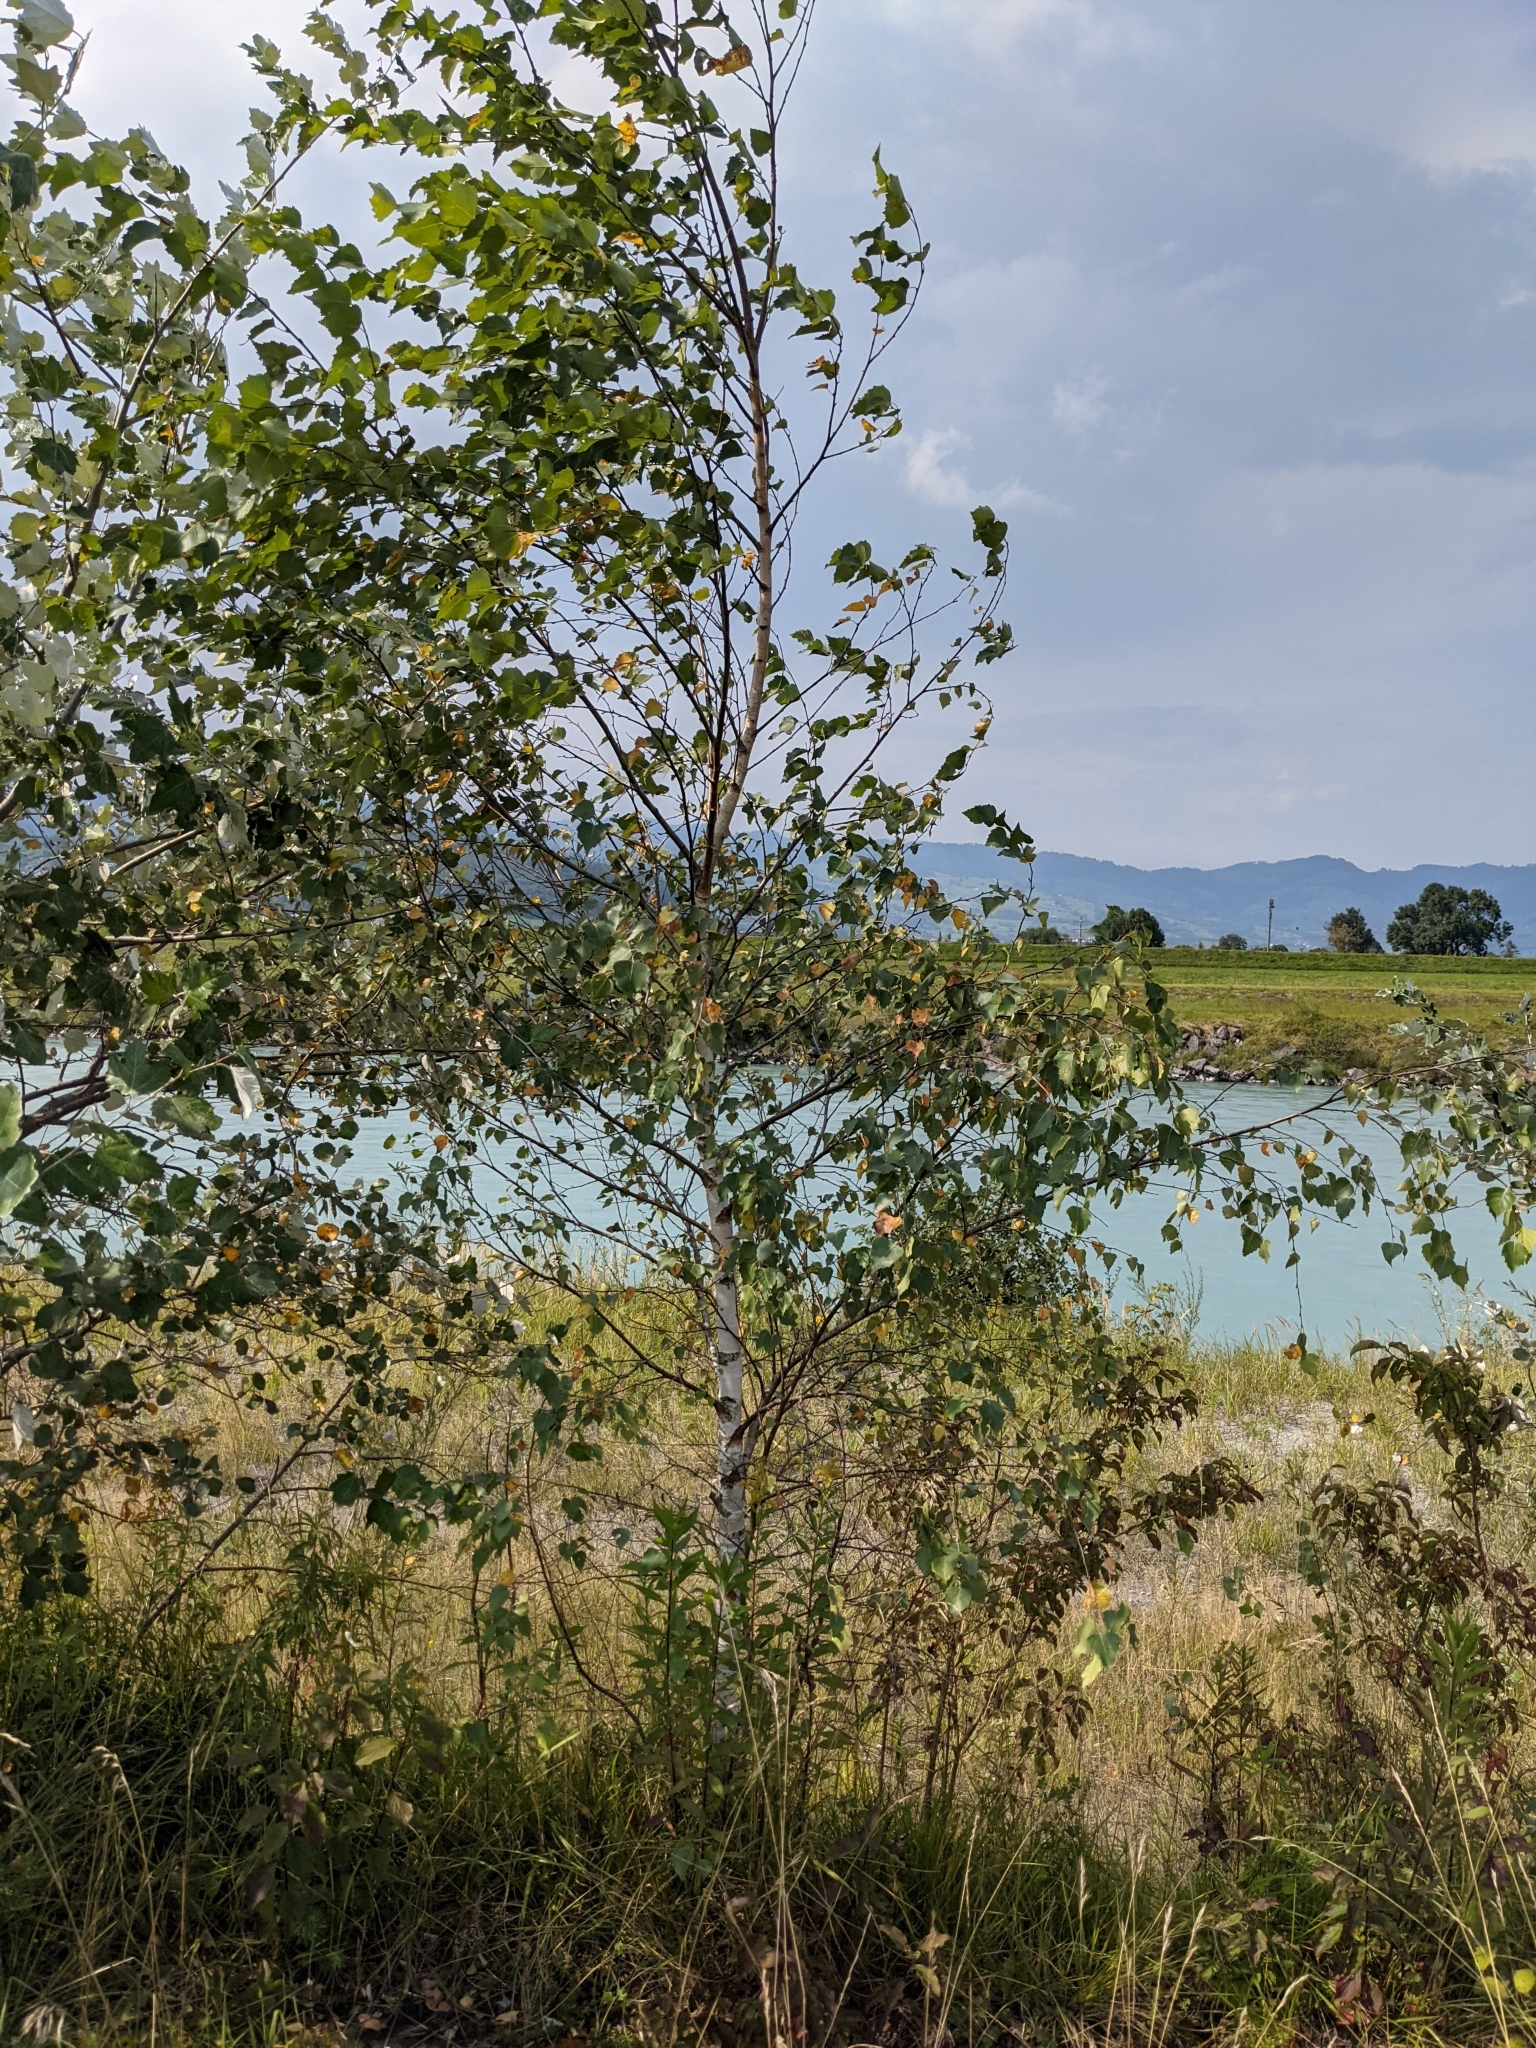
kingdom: Plantae
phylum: Tracheophyta
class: Magnoliopsida
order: Fagales
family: Betulaceae
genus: Betula
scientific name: Betula pendula
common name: Silver birch
